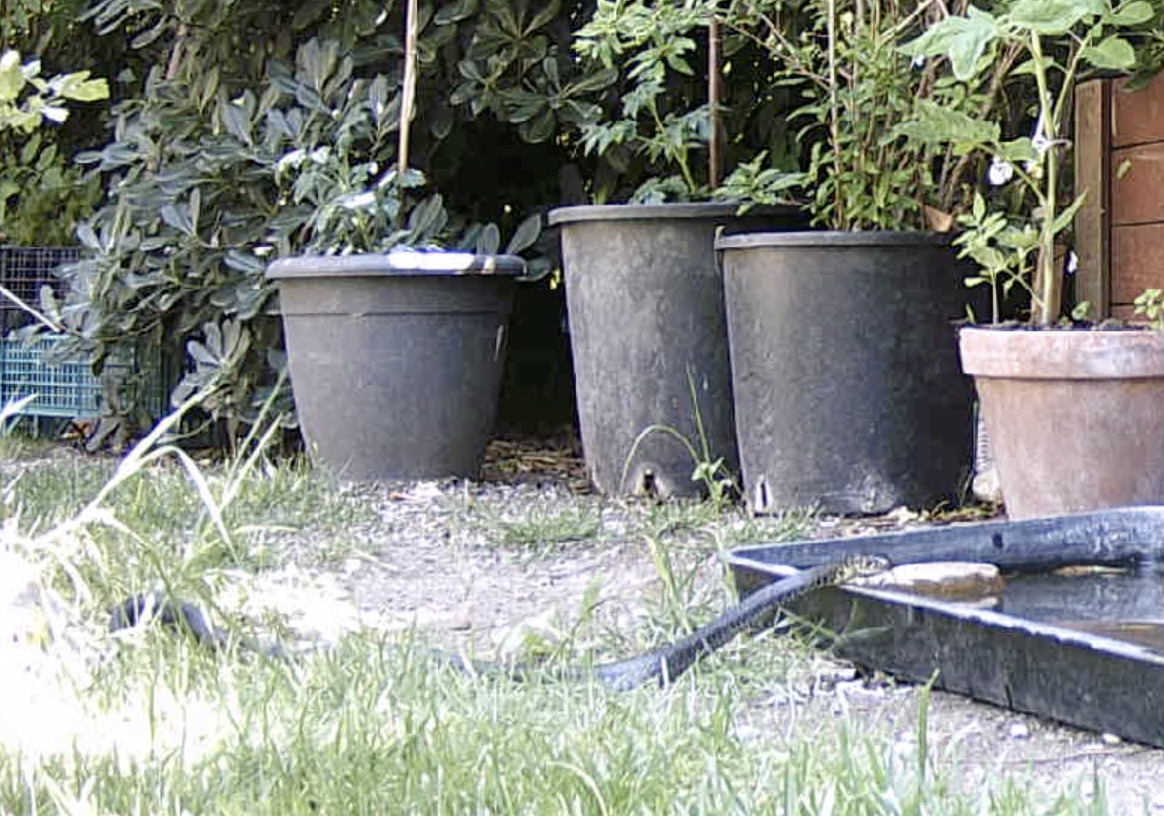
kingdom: Animalia
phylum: Chordata
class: Squamata
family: Colubridae
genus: Hierophis
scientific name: Hierophis viridiflavus
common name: Green whip snake
